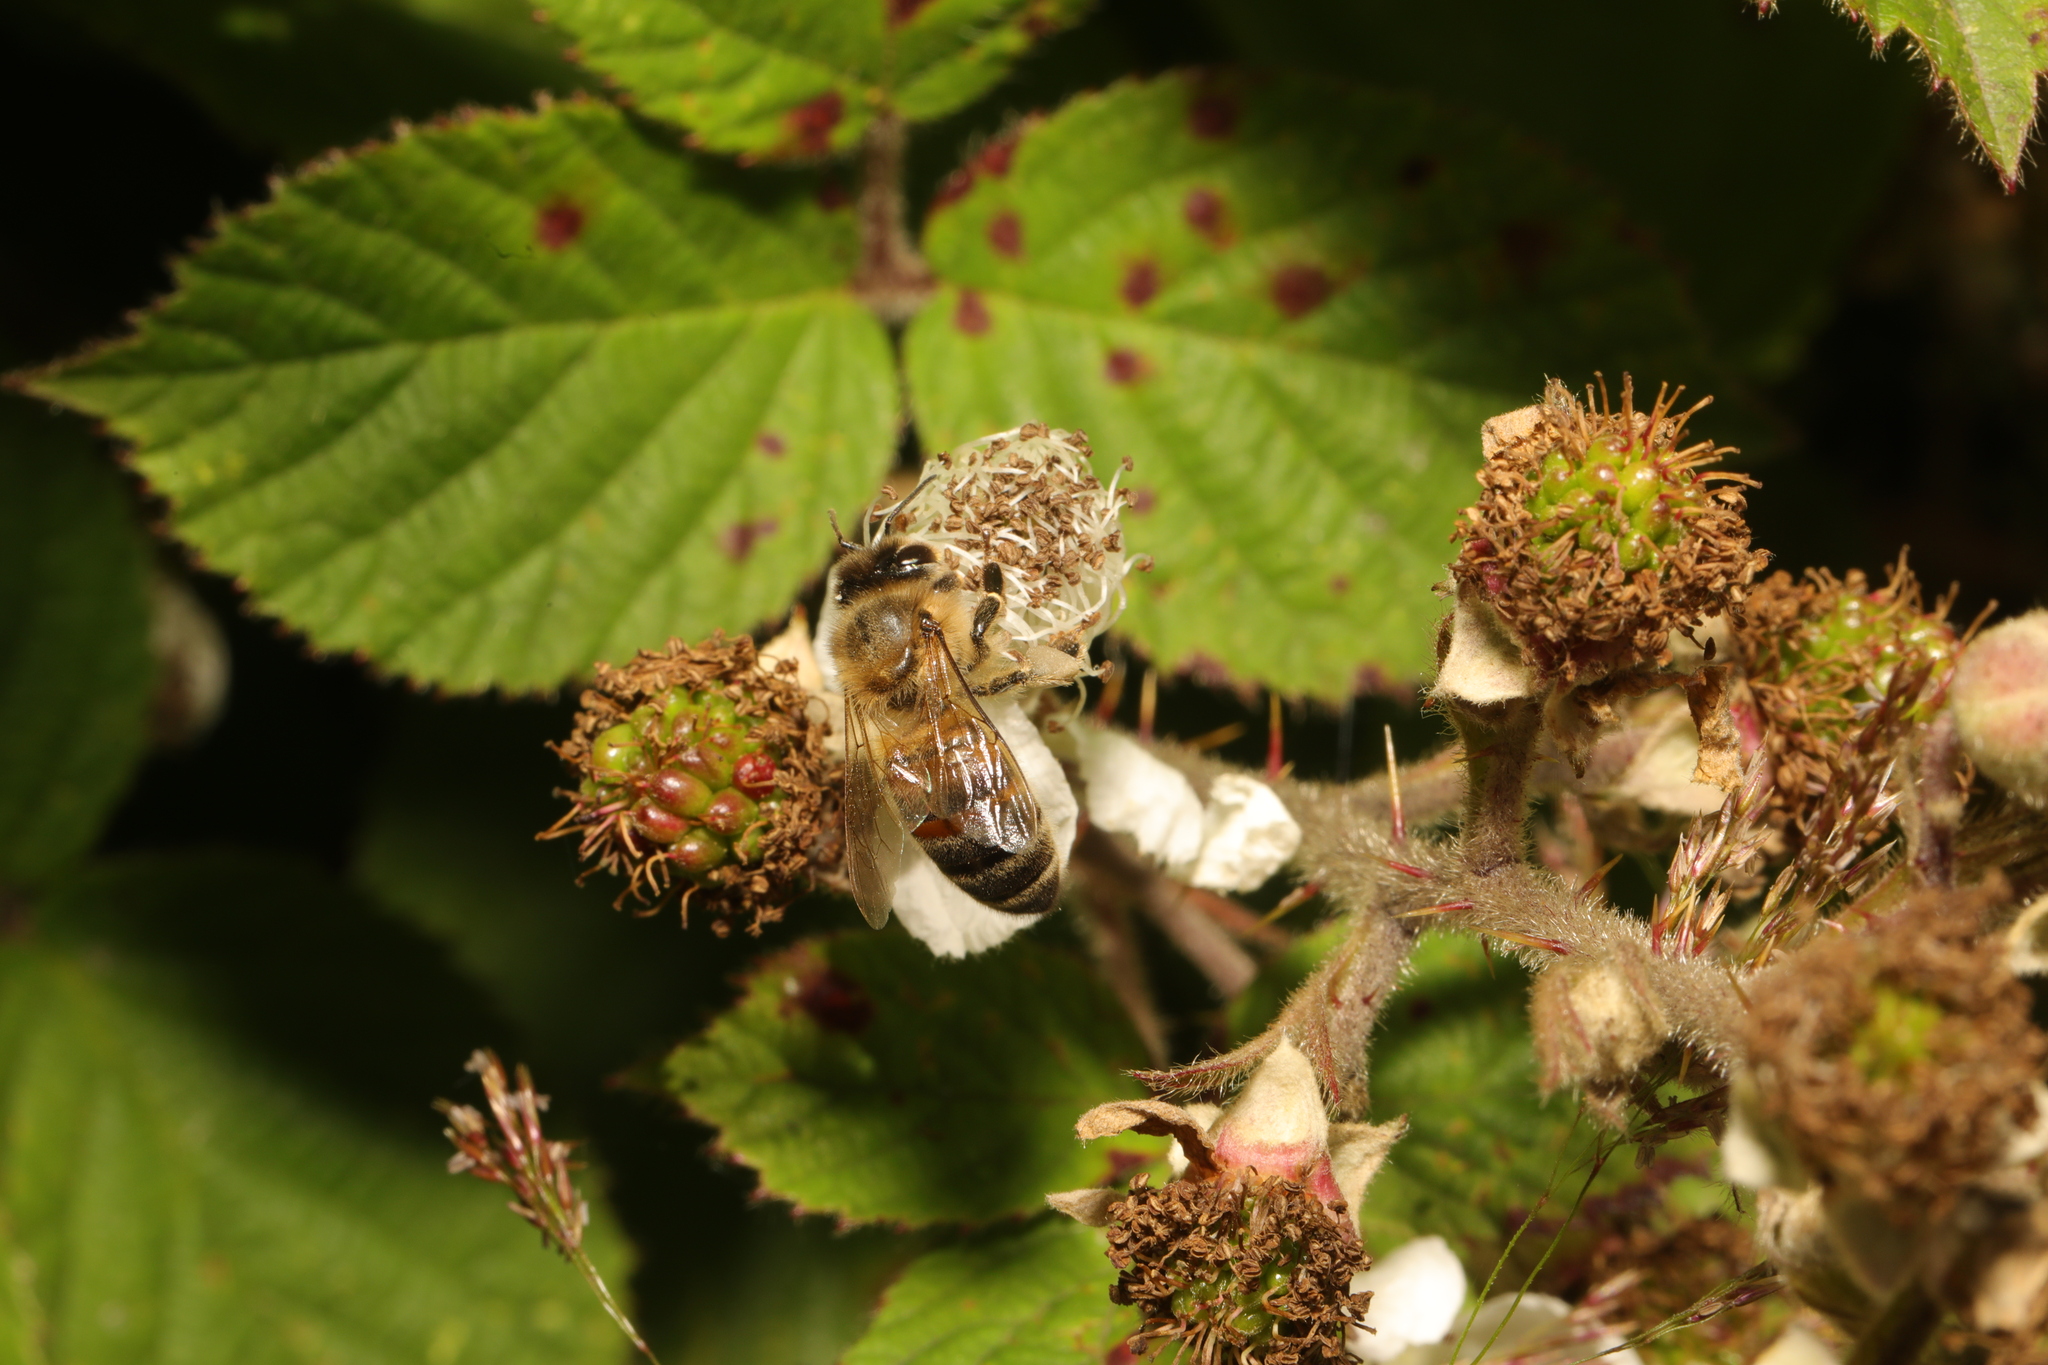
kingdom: Animalia
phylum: Arthropoda
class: Insecta
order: Hymenoptera
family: Apidae
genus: Apis
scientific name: Apis mellifera
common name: Honey bee
